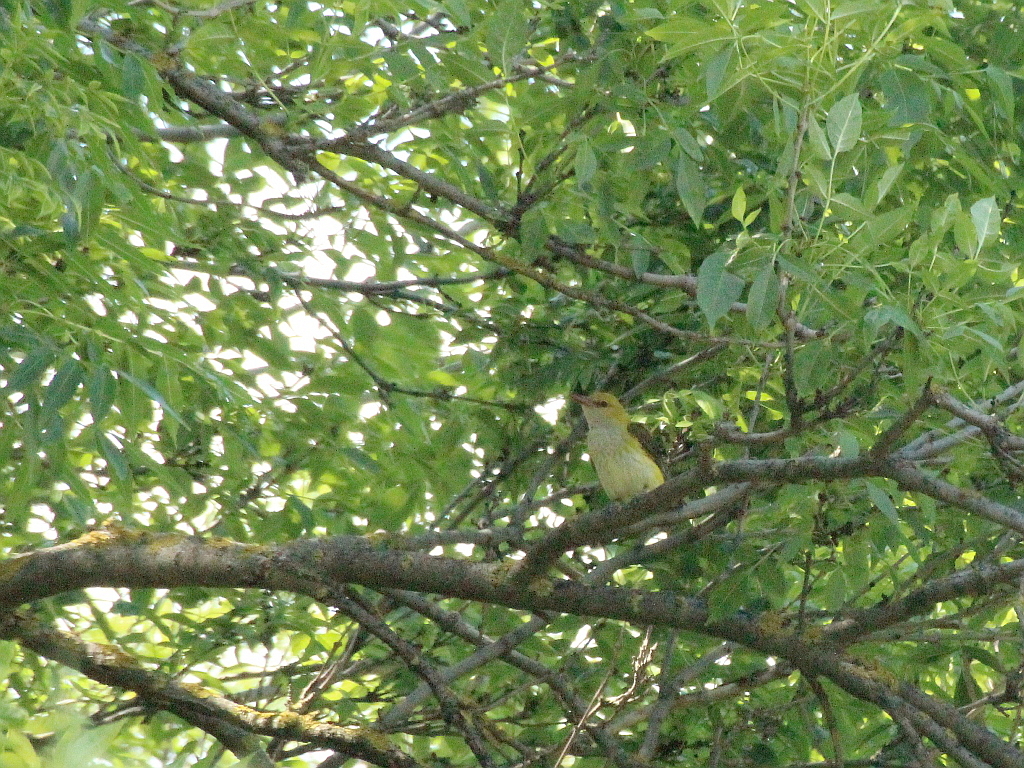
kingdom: Animalia
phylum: Chordata
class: Aves
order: Passeriformes
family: Oriolidae
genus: Oriolus
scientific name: Oriolus oriolus
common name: Eurasian golden oriole
